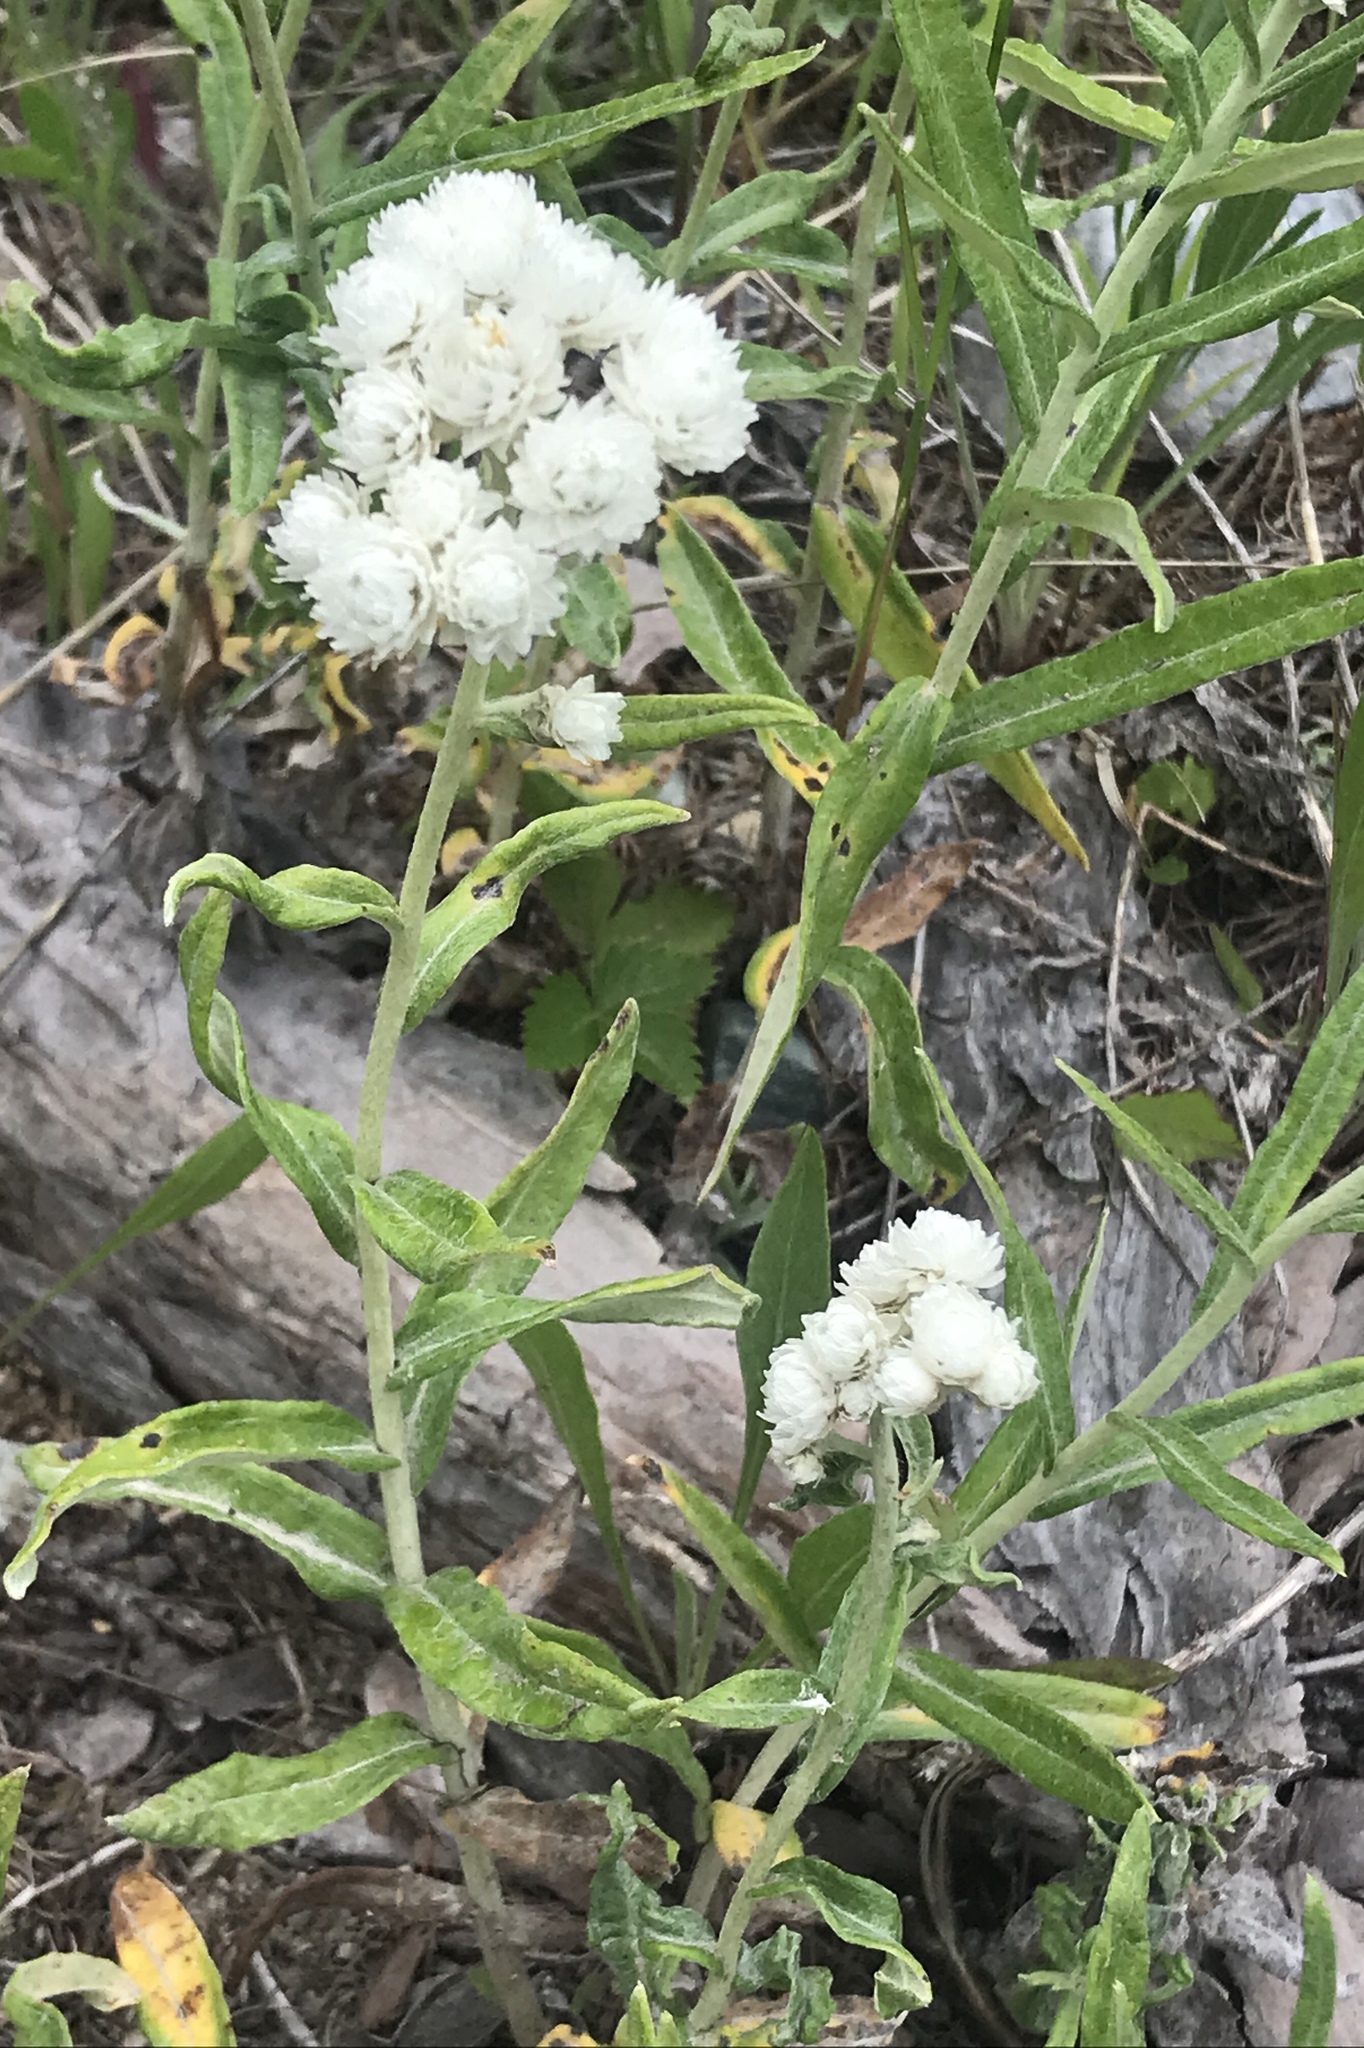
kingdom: Plantae
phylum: Tracheophyta
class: Magnoliopsida
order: Asterales
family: Asteraceae
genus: Anaphalis
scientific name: Anaphalis margaritacea
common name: Pearly everlasting
